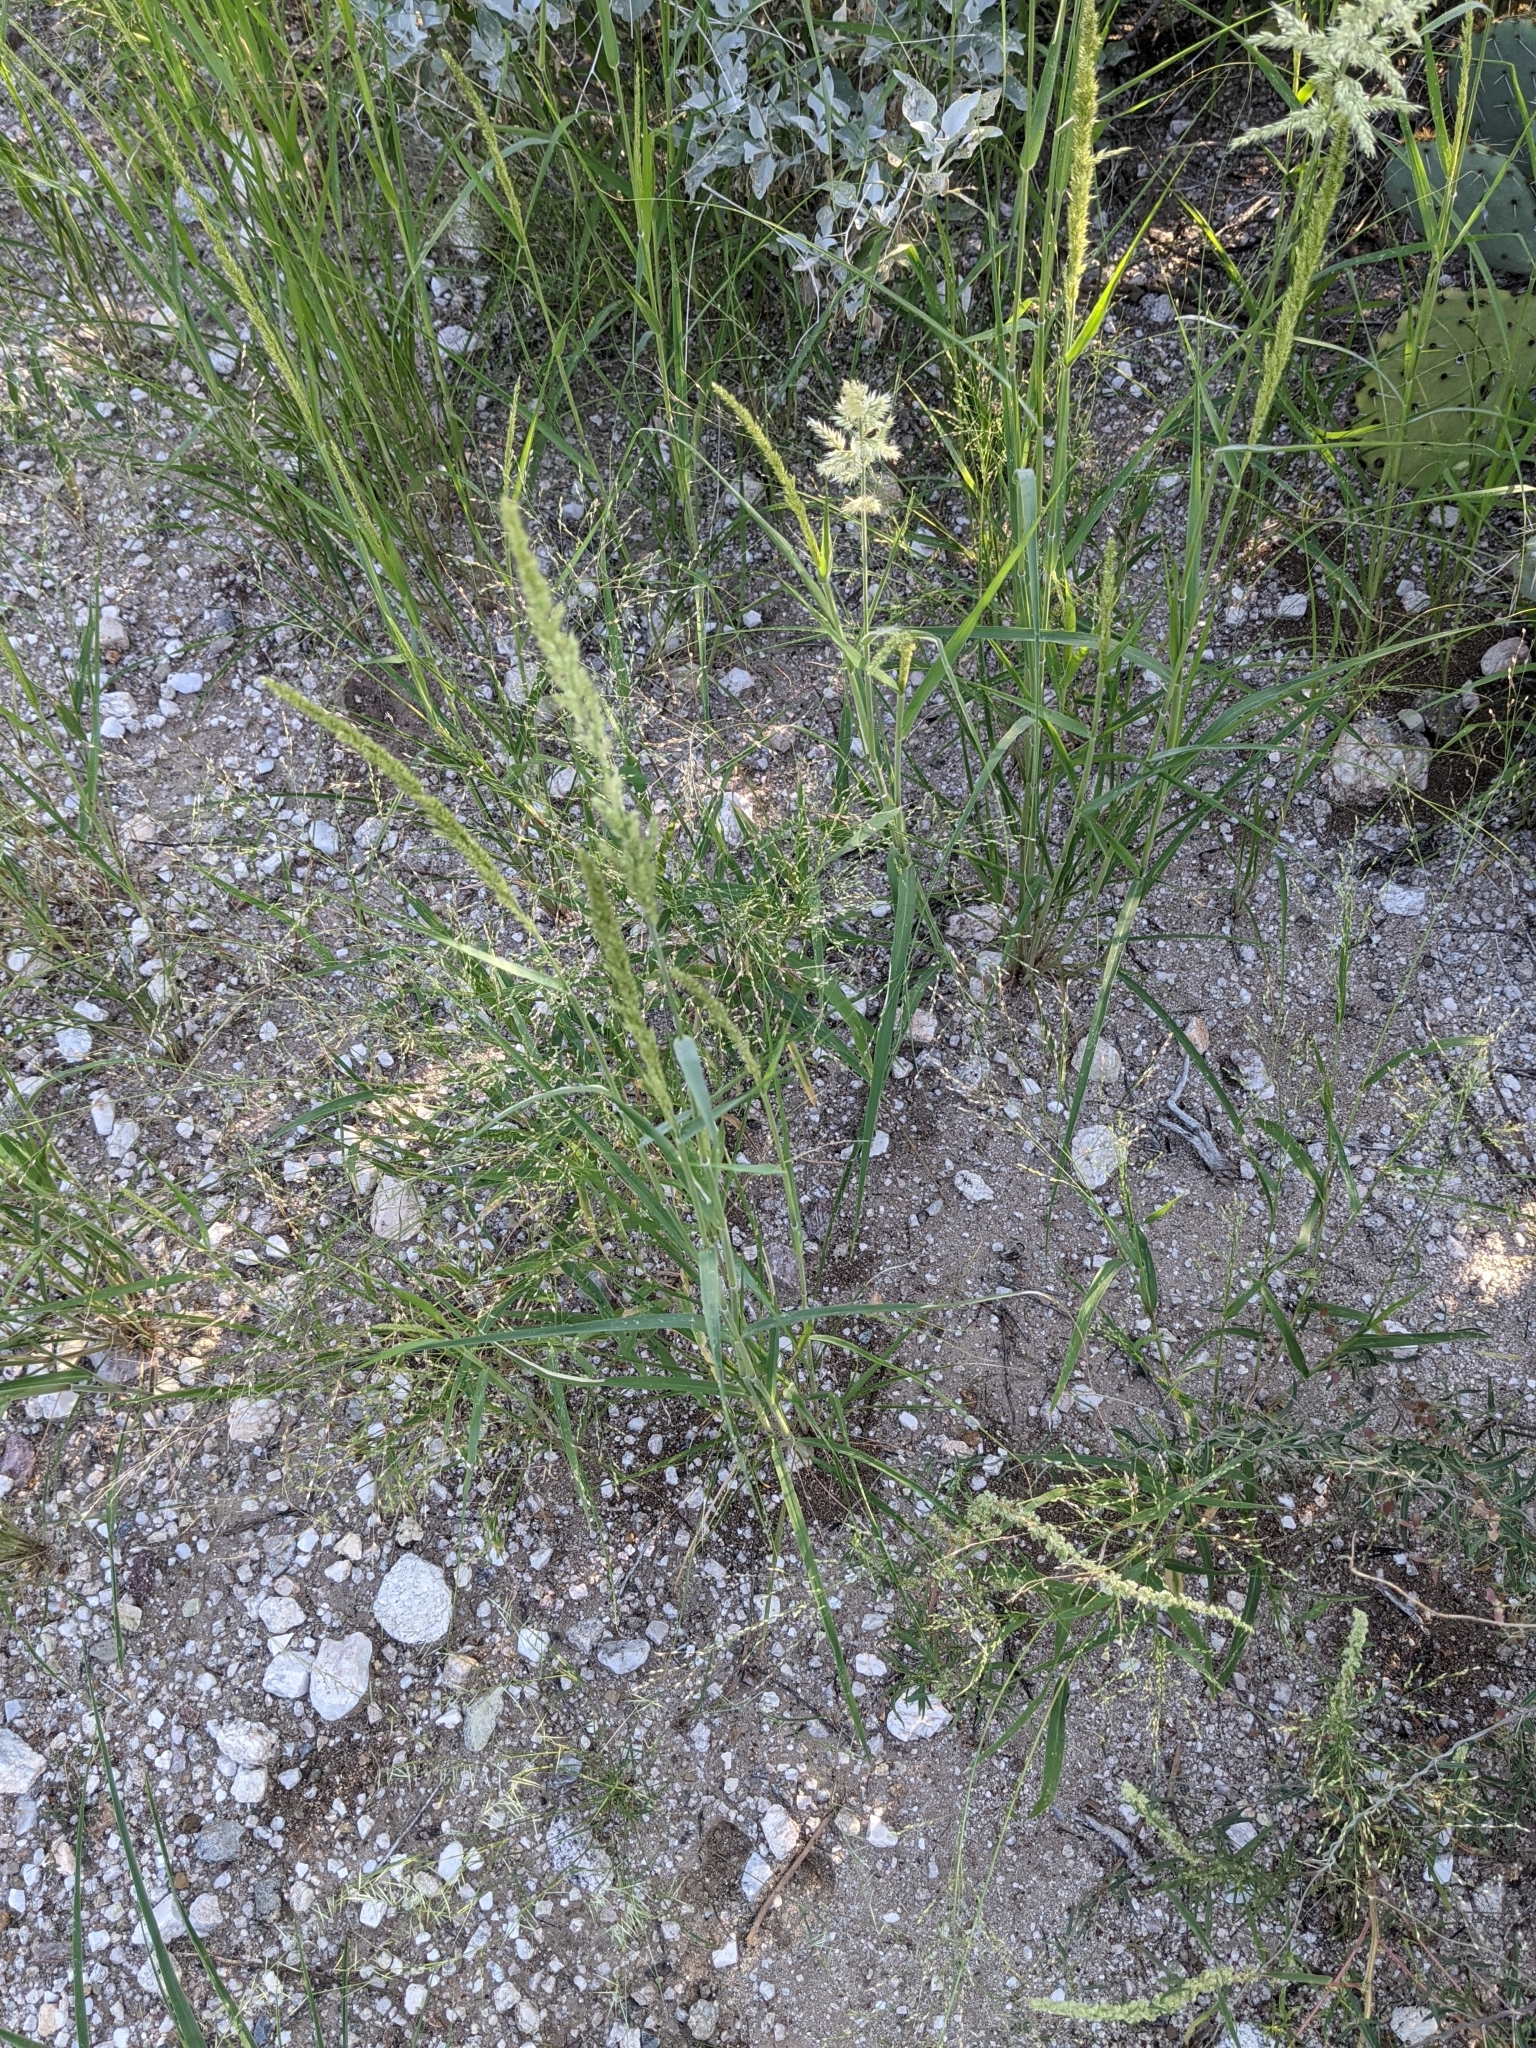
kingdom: Plantae
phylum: Tracheophyta
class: Liliopsida
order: Poales
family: Poaceae
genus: Enneapogon
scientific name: Enneapogon cenchroides
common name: Soft feather pappusgrass
